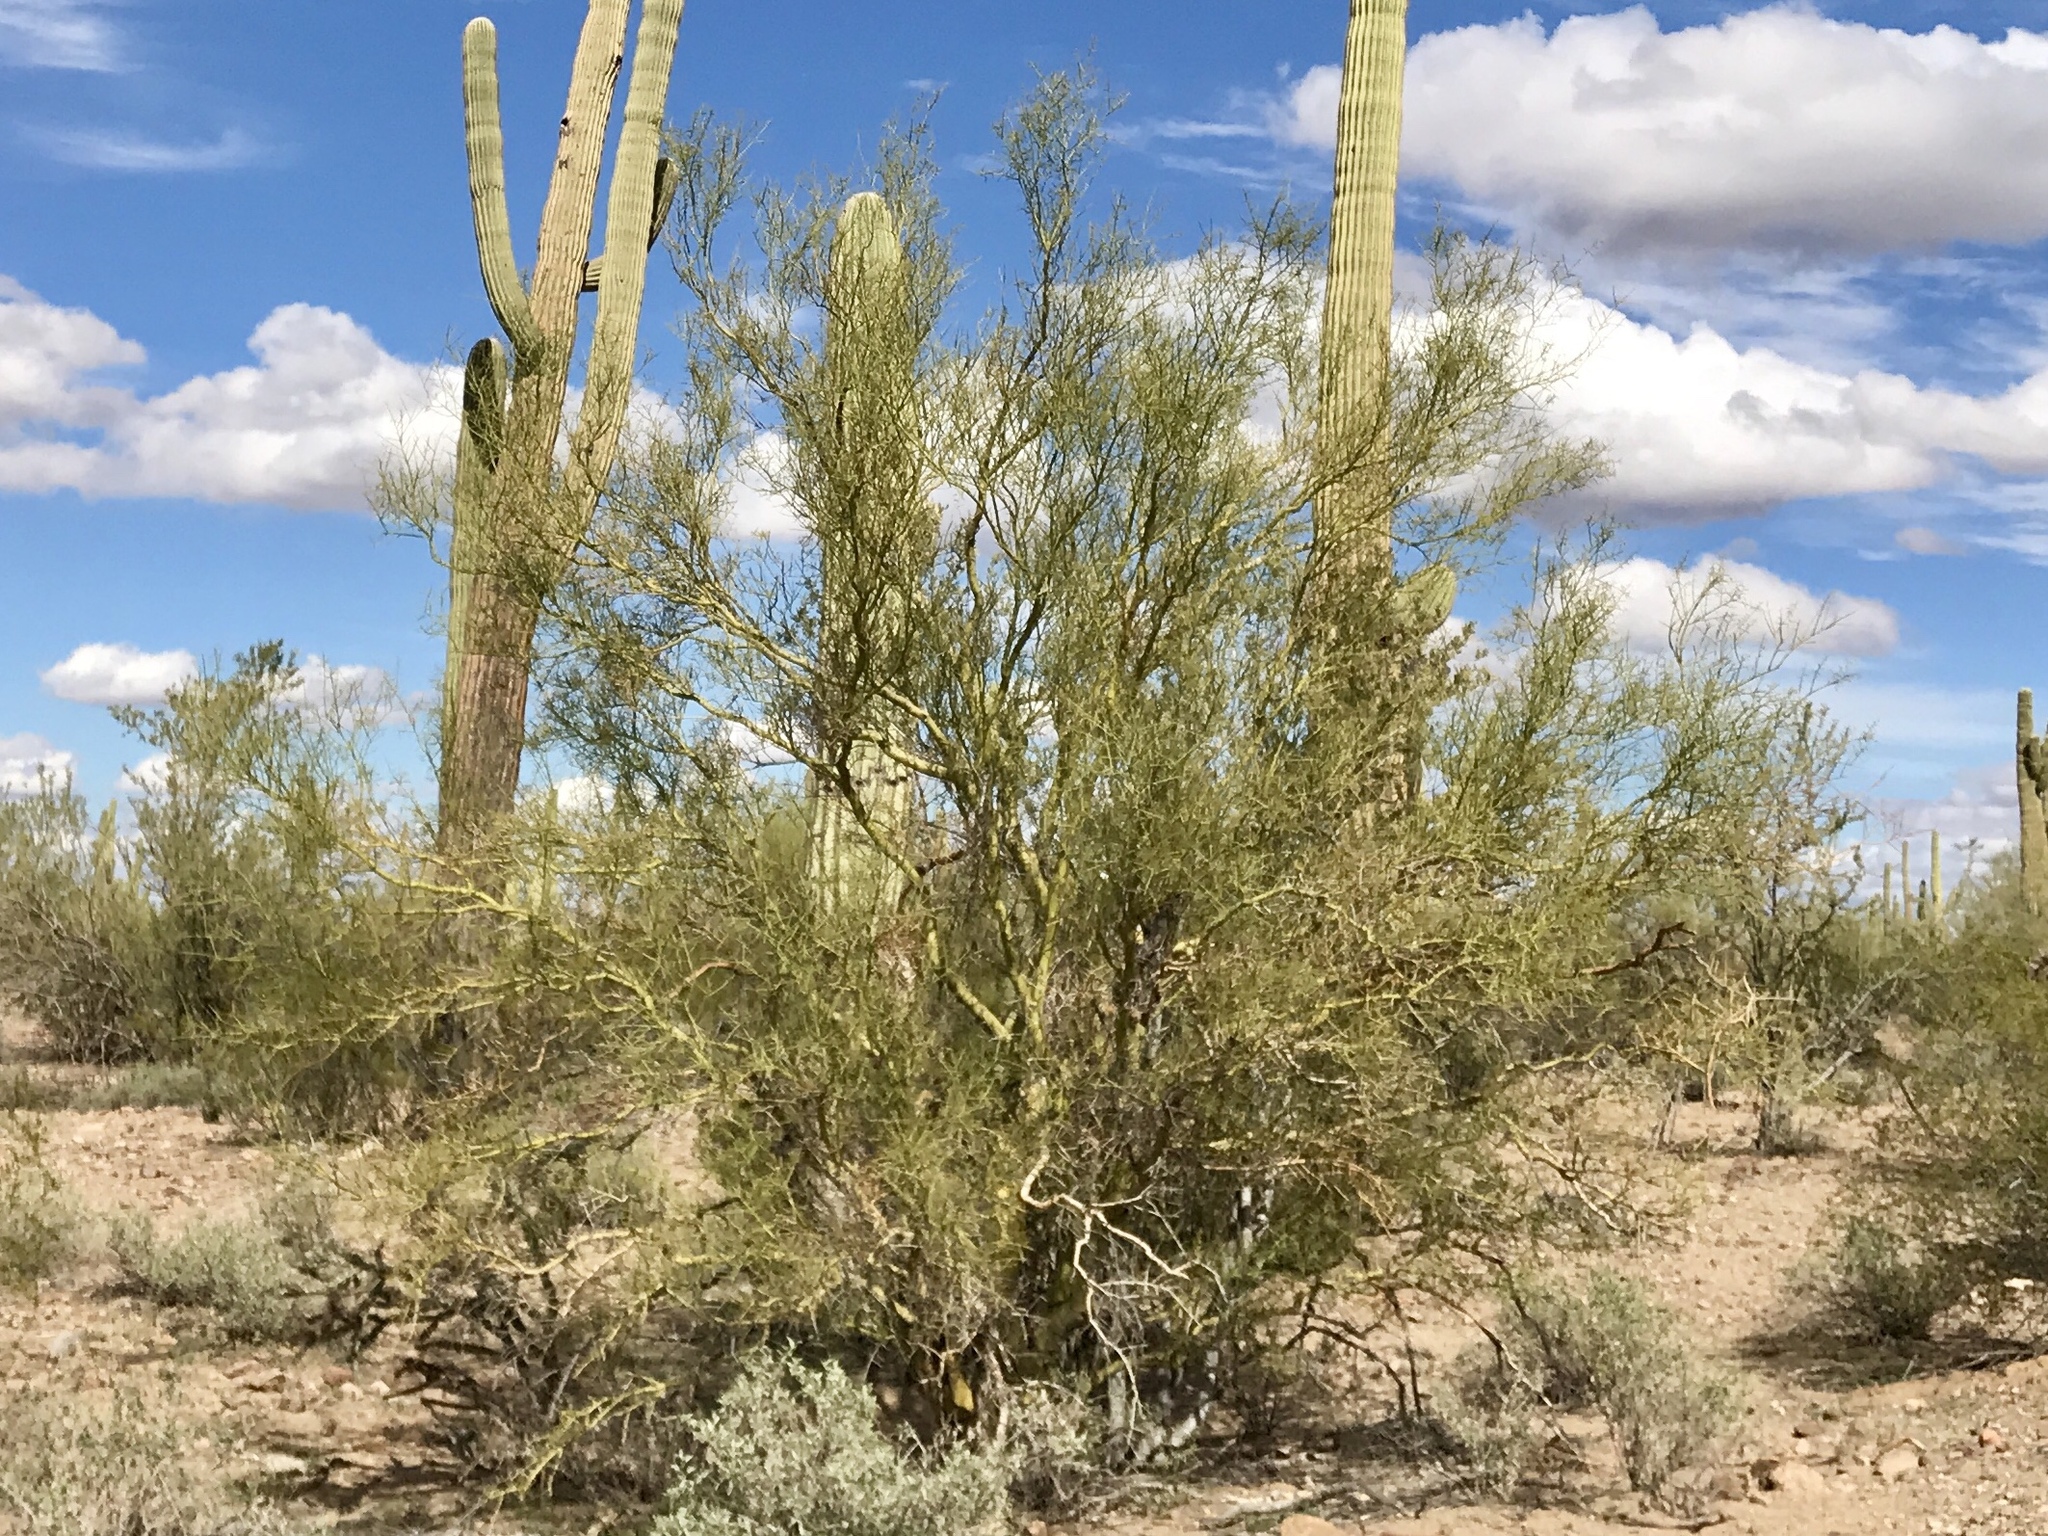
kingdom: Plantae
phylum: Tracheophyta
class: Magnoliopsida
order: Fabales
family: Fabaceae
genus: Parkinsonia
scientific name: Parkinsonia microphylla
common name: Yellow paloverde
